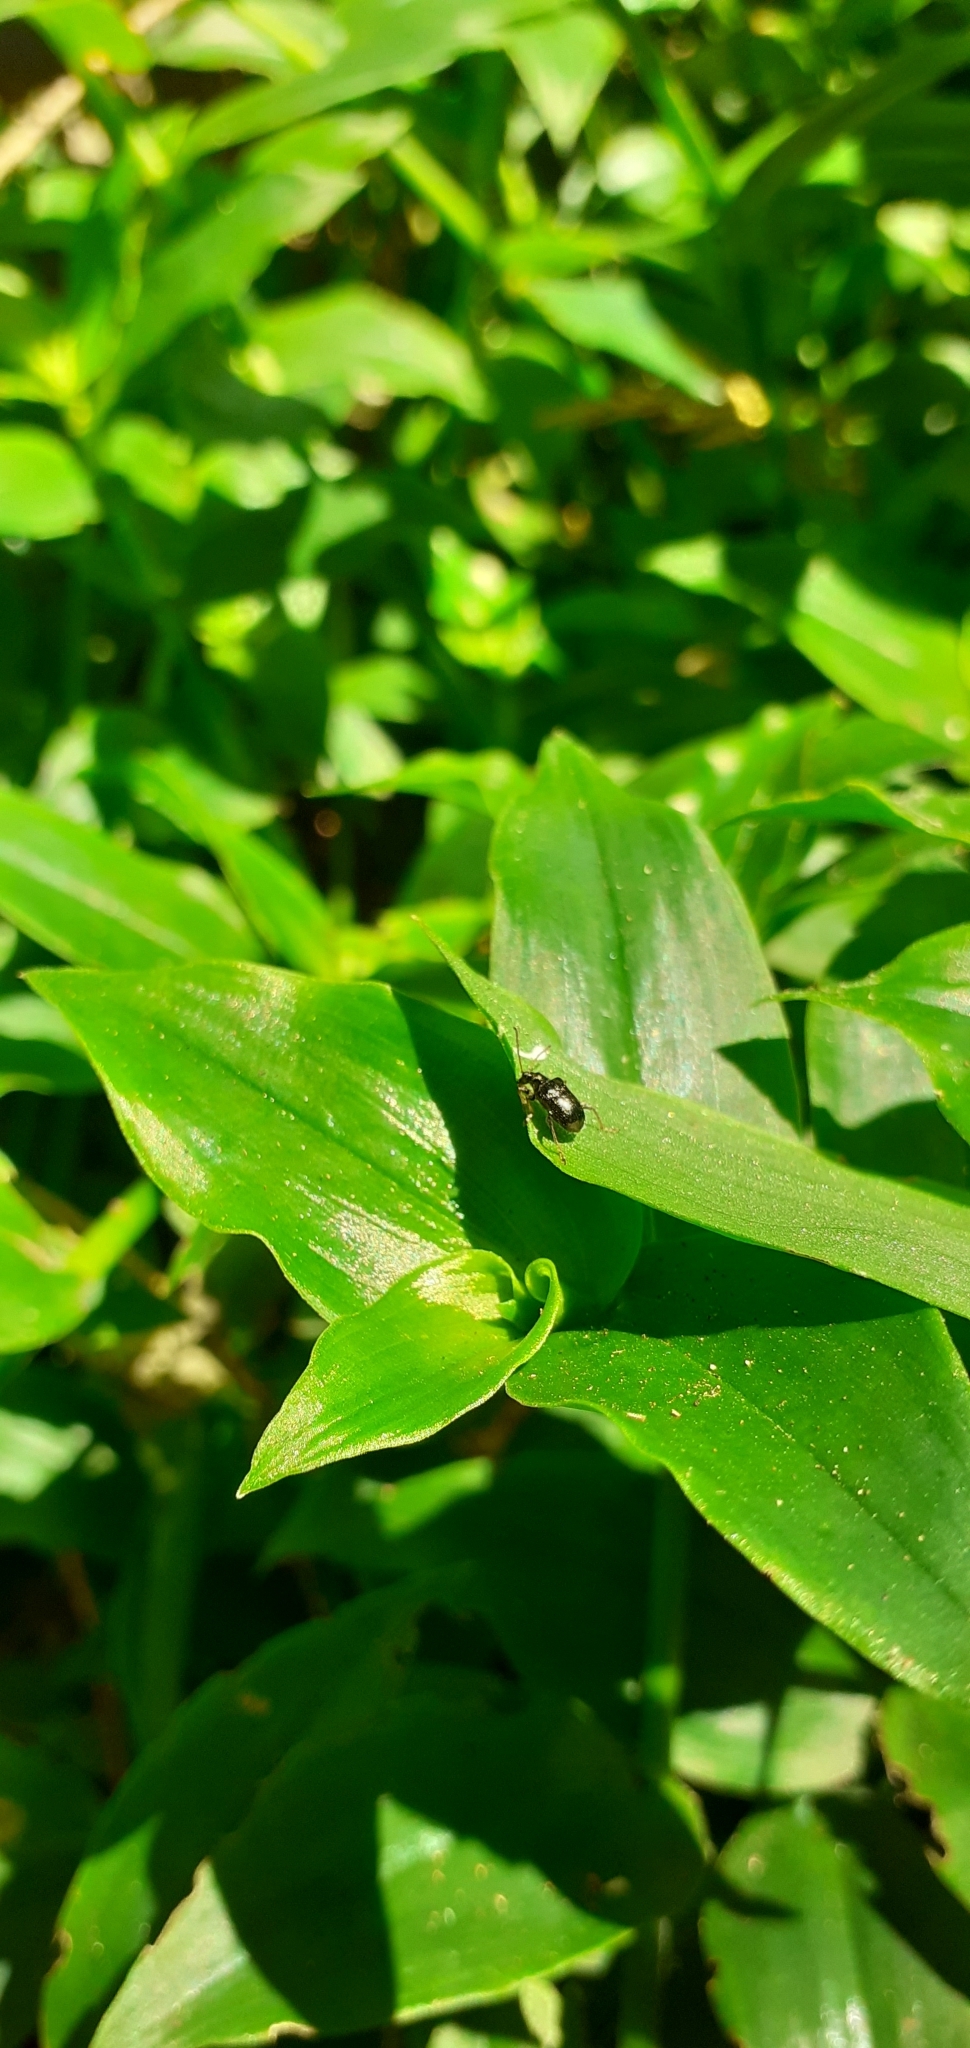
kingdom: Animalia
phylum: Arthropoda
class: Insecta
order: Coleoptera
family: Chrysomelidae
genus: Neolema
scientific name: Neolema ogloblini
